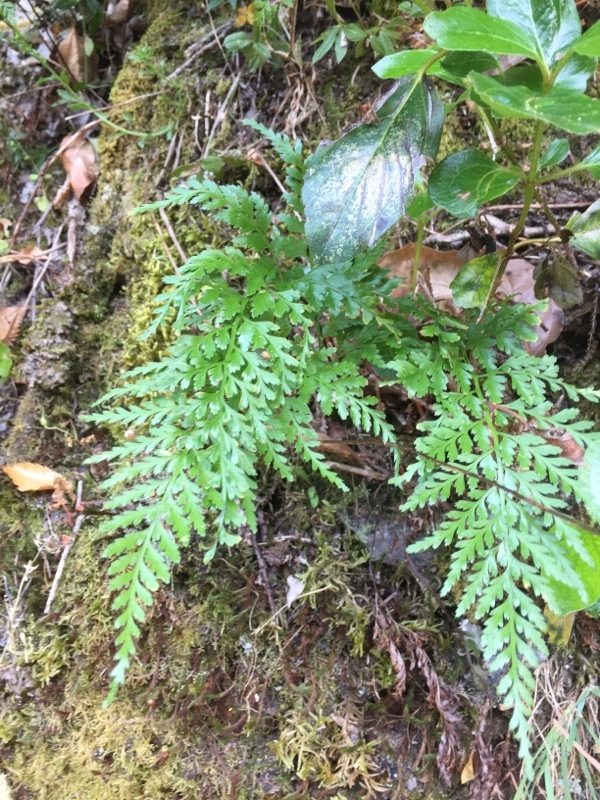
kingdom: Plantae
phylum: Tracheophyta
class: Polypodiopsida
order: Polypodiales
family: Aspleniaceae
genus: Asplenium
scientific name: Asplenium onopteris
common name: Irish spleenwort
